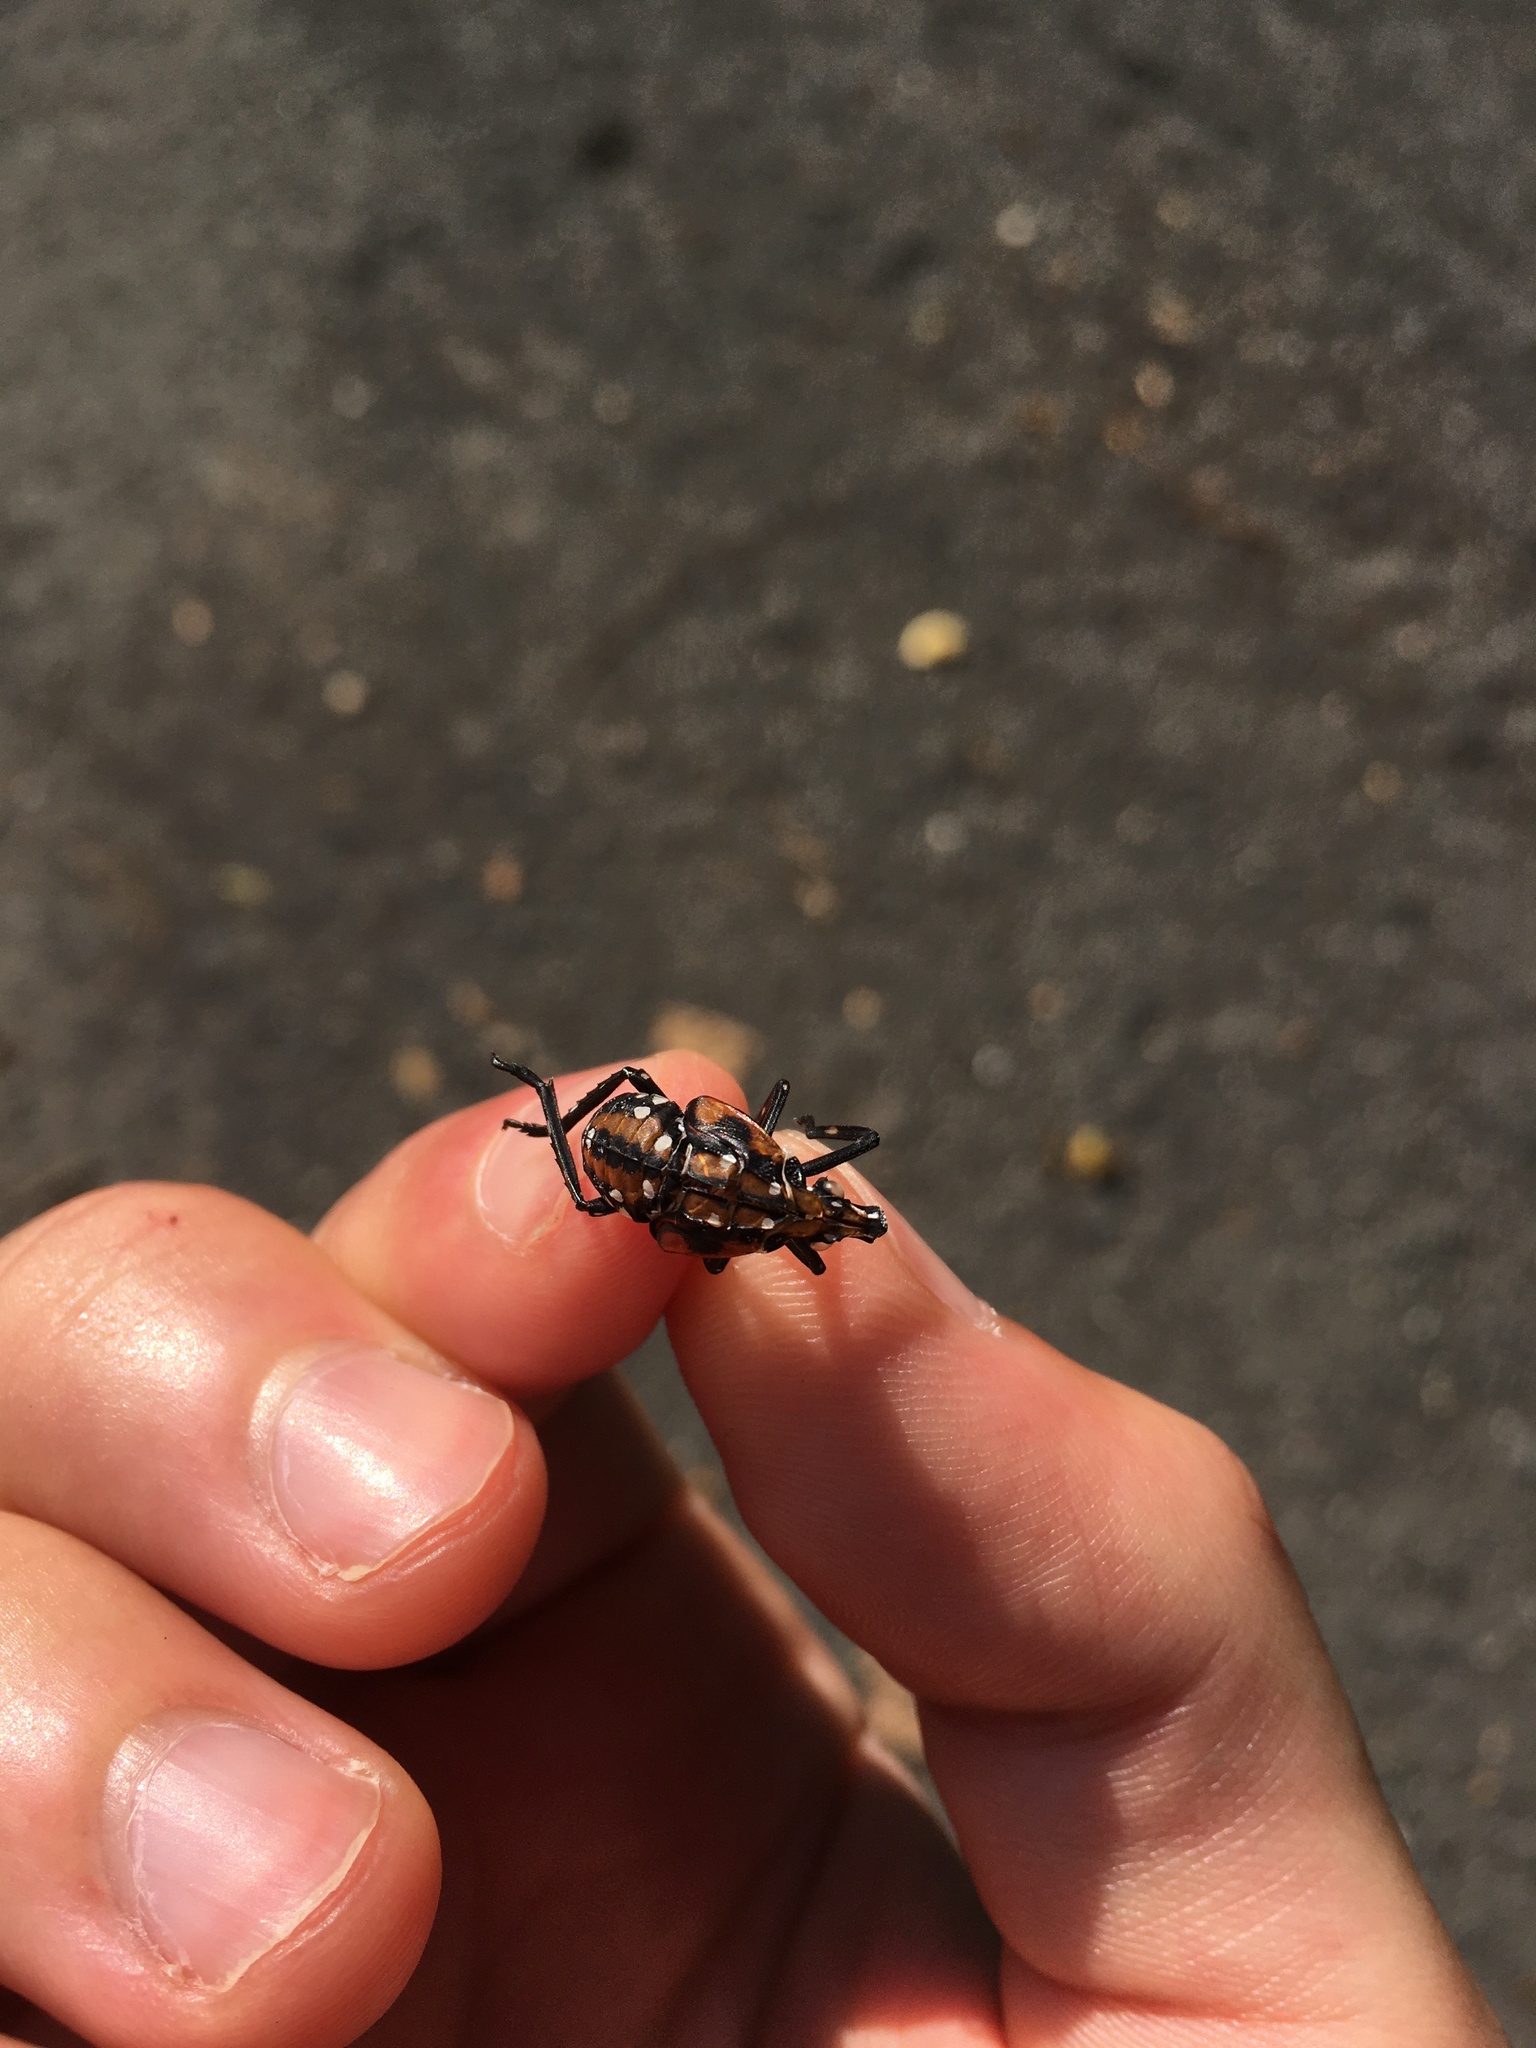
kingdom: Animalia
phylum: Arthropoda
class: Insecta
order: Hemiptera
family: Fulgoridae
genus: Lycorma
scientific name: Lycorma delicatula
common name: Spotted lanternfly
